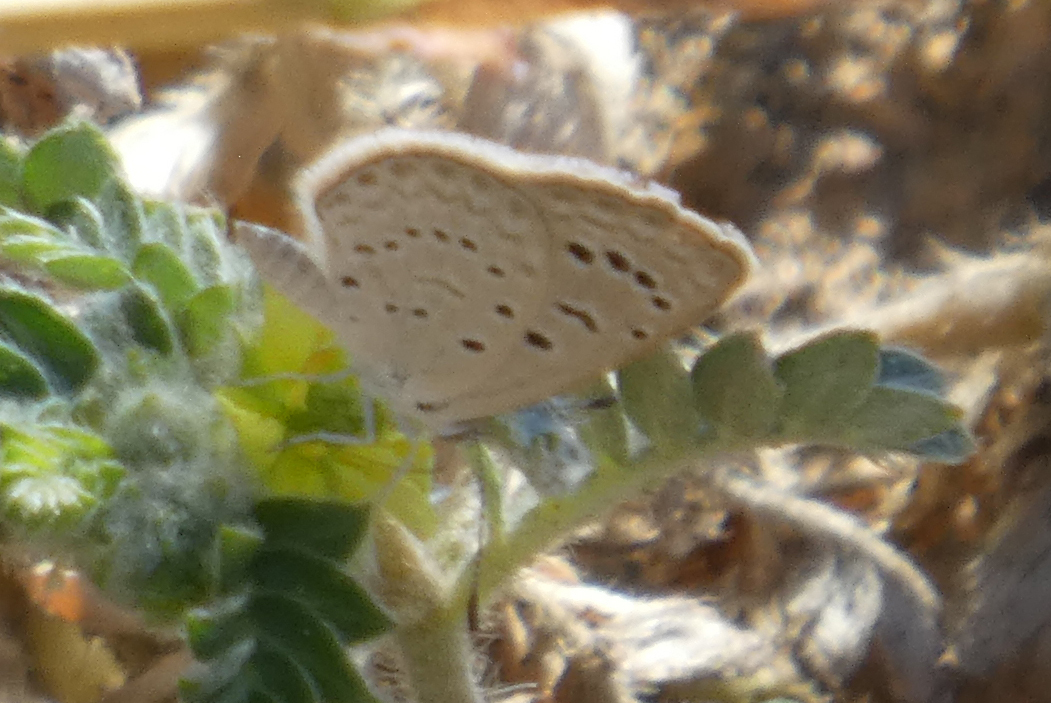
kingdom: Animalia
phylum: Arthropoda
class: Insecta
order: Lepidoptera
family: Lycaenidae
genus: Zizeeria
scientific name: Zizeeria karsandra
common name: Dark grass blue
